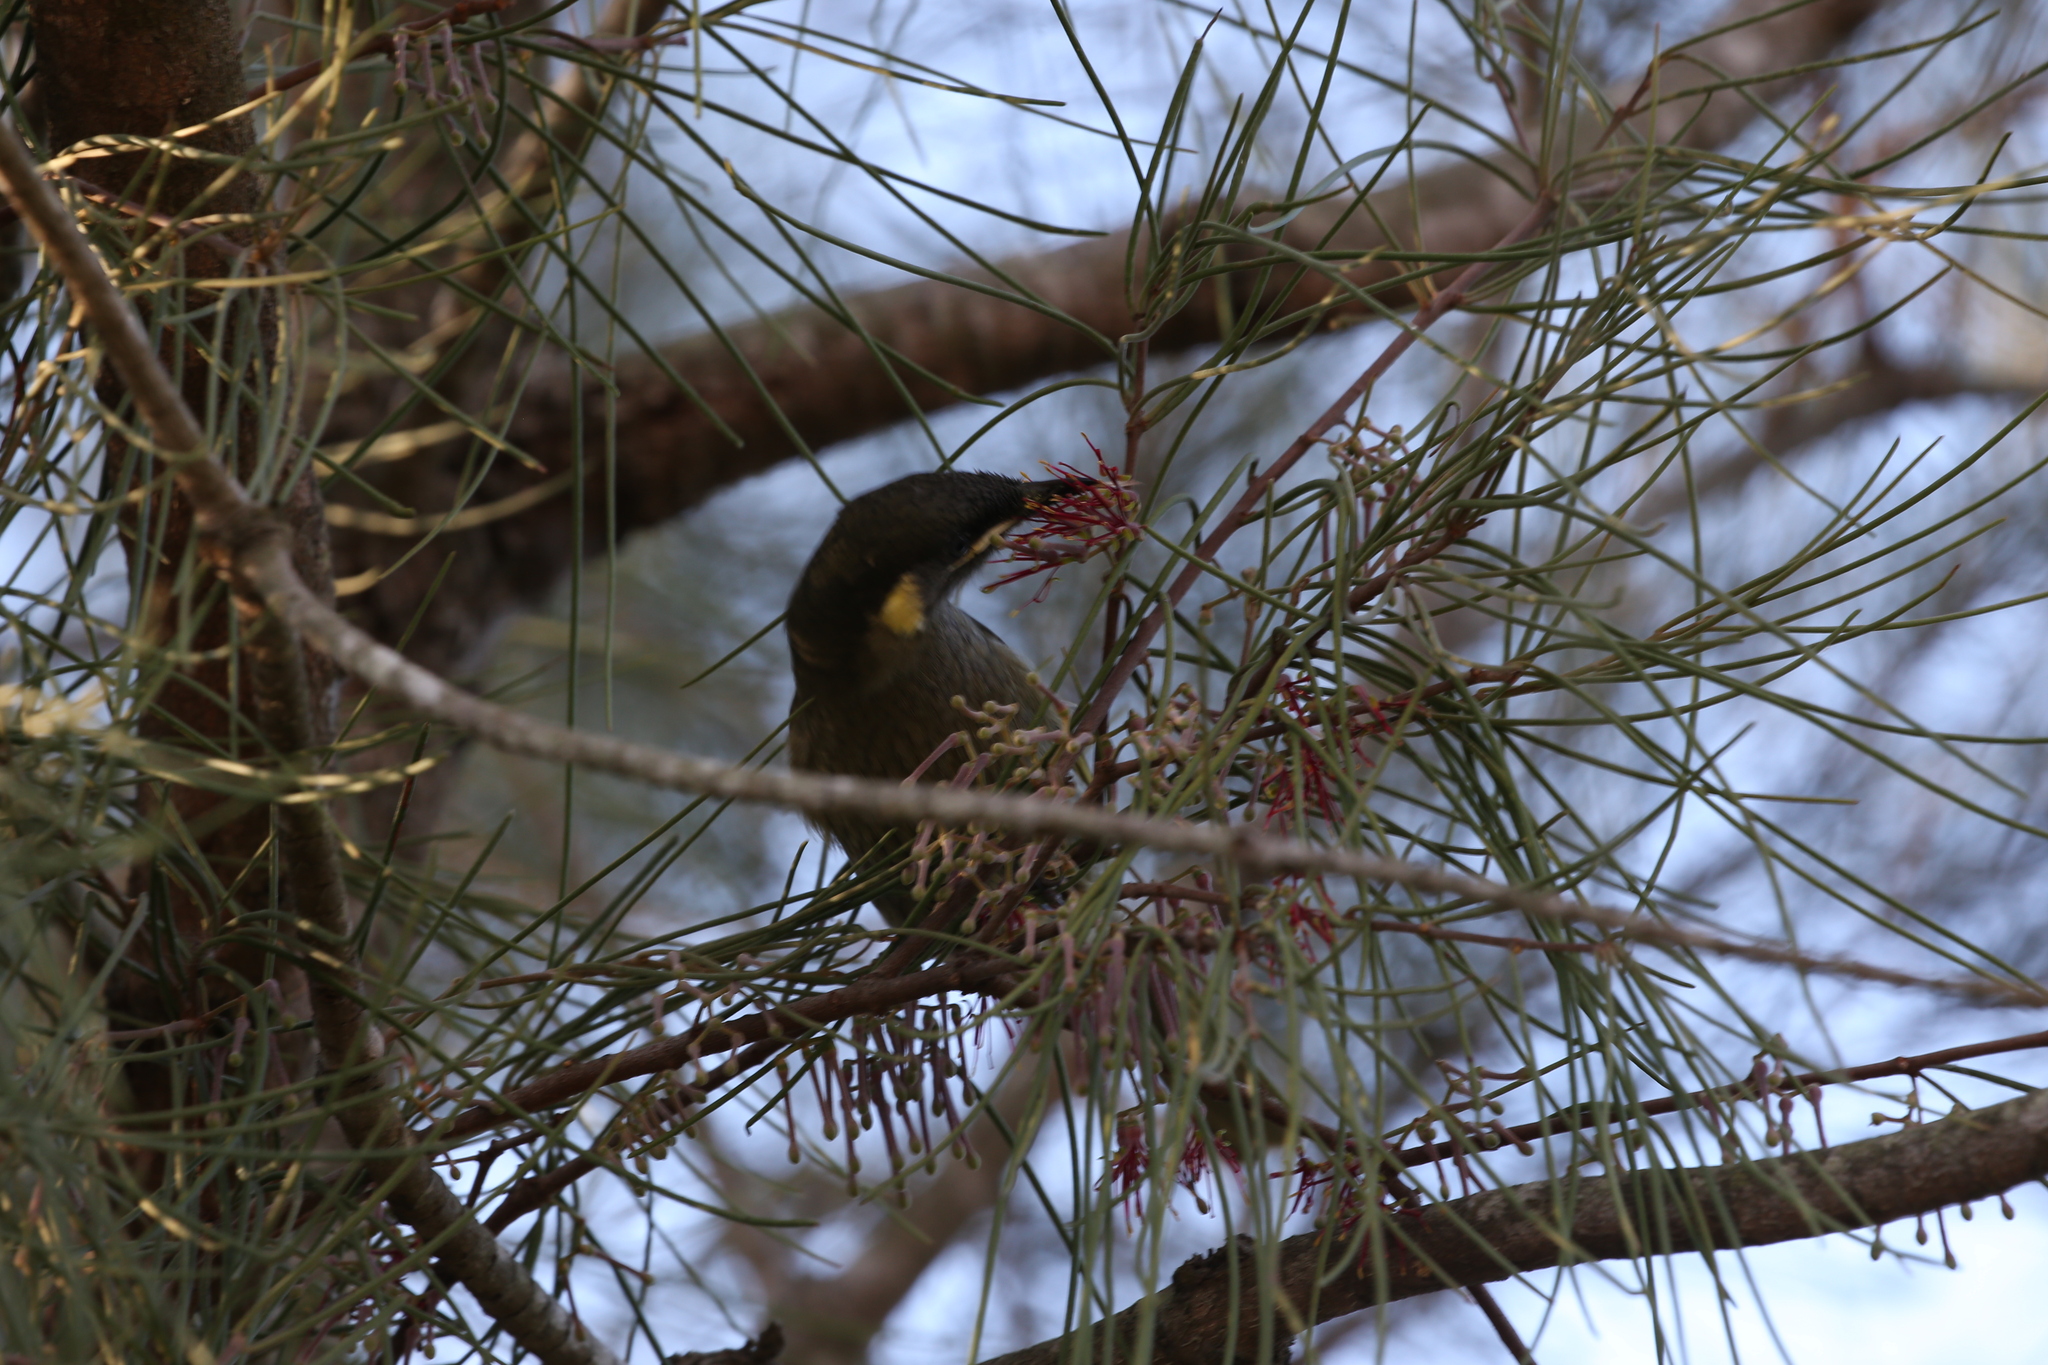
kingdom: Animalia
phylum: Chordata
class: Aves
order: Passeriformes
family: Meliphagidae
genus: Meliphaga
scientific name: Meliphaga lewinii
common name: Lewin's honeyeater
